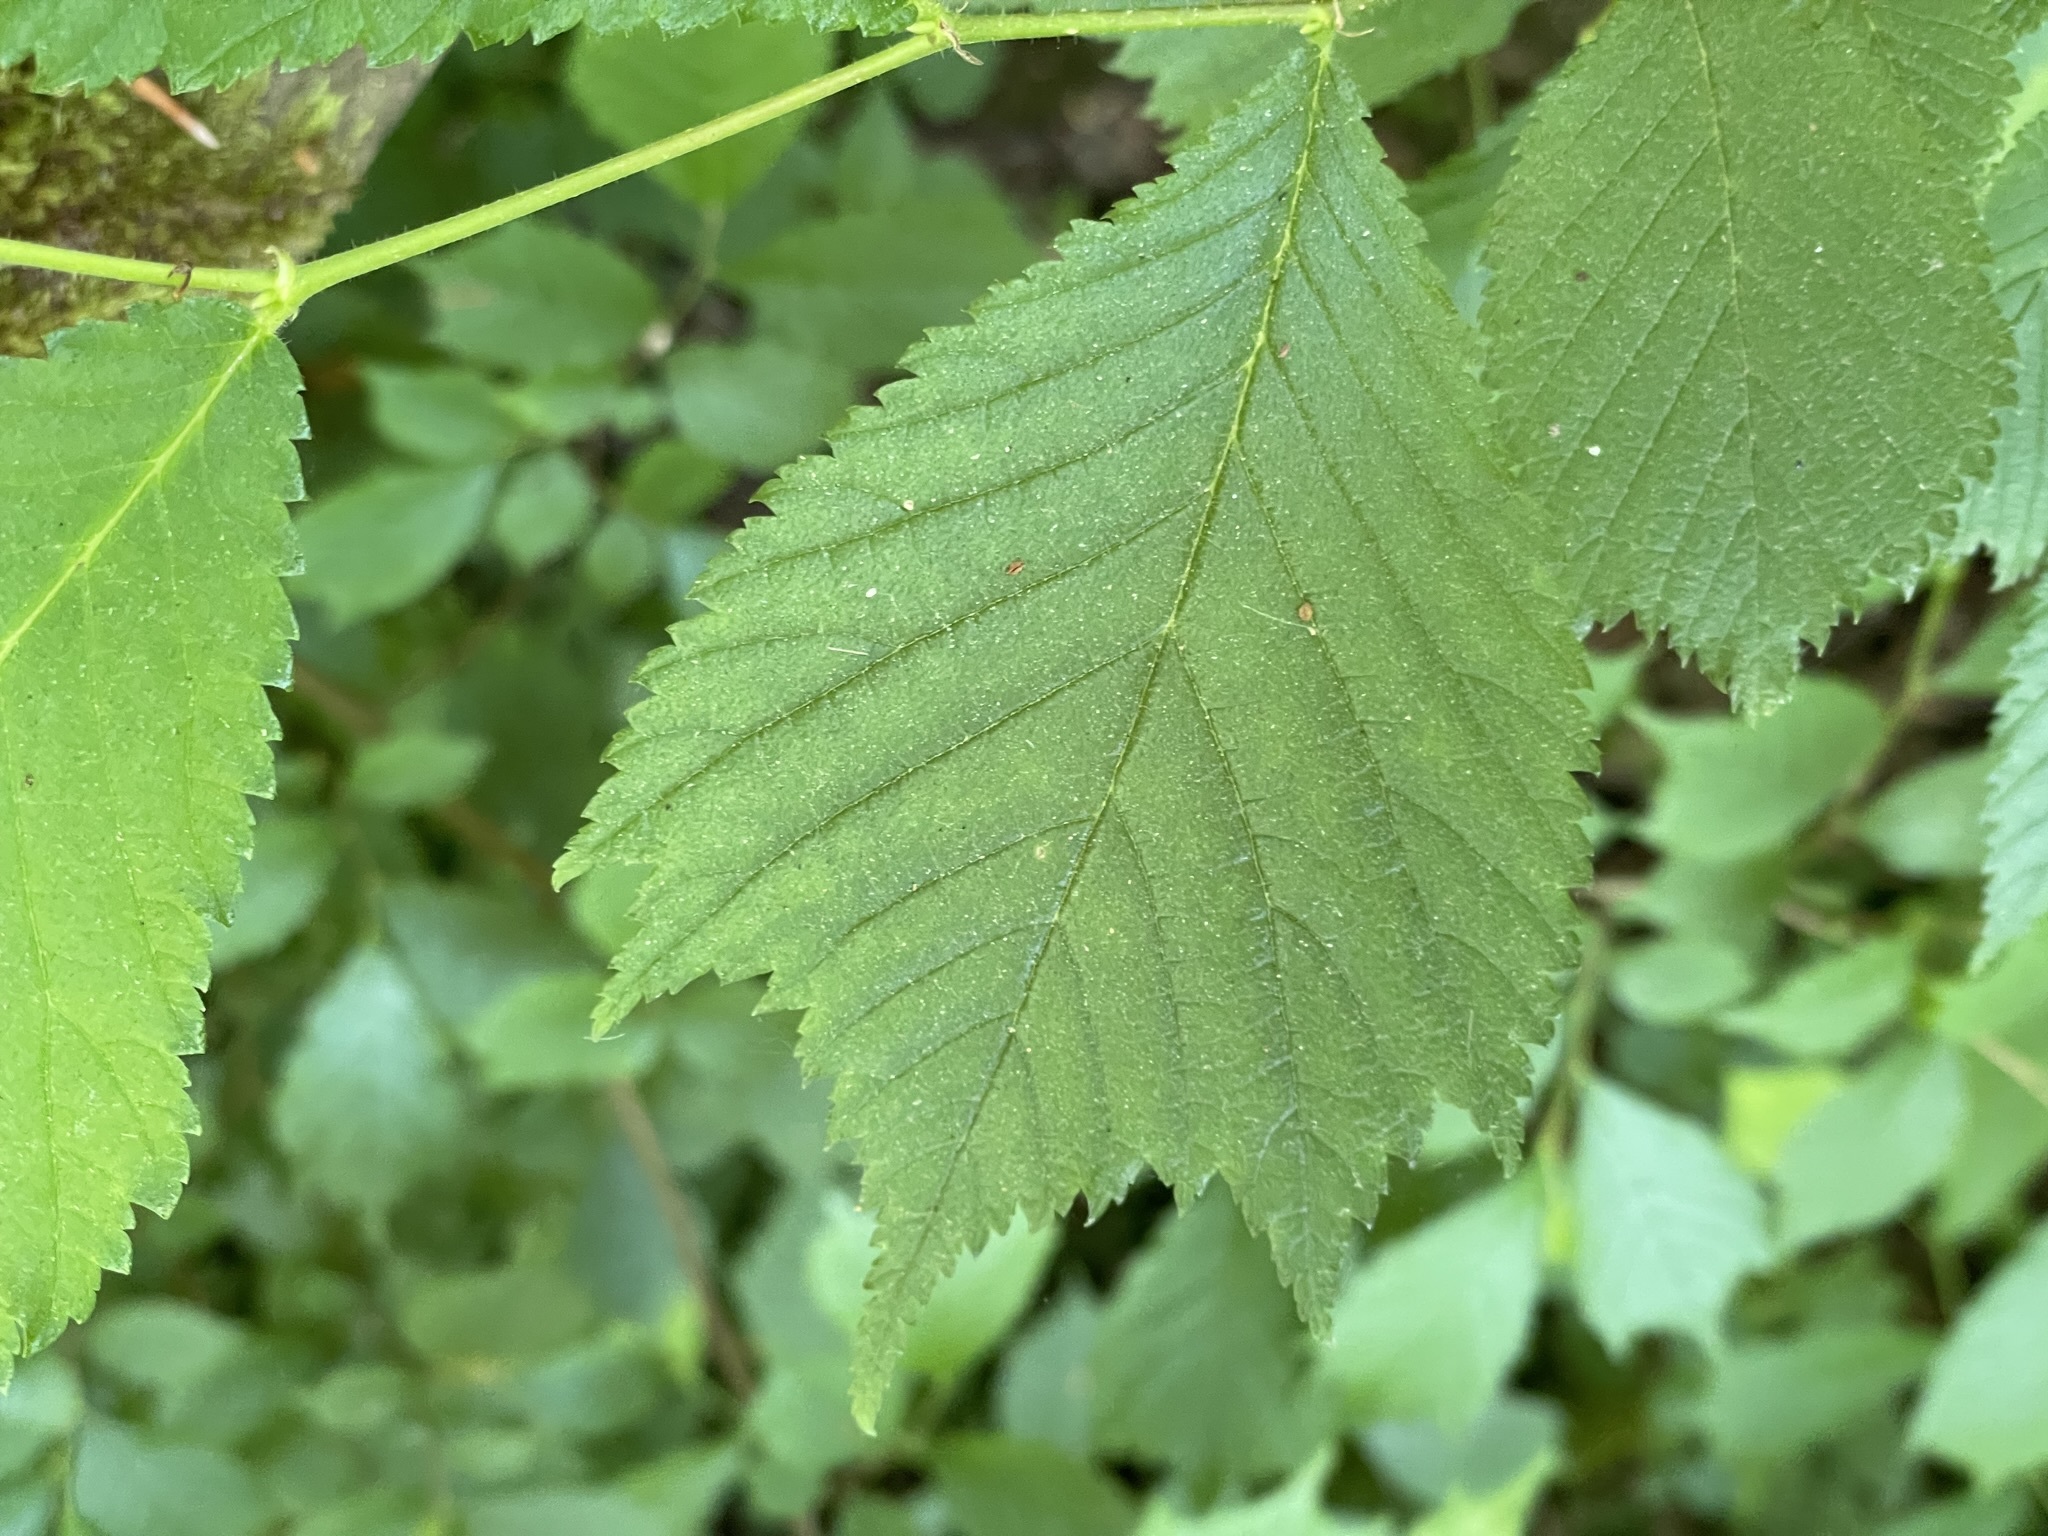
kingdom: Plantae
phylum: Tracheophyta
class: Magnoliopsida
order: Rosales
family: Ulmaceae
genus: Ulmus
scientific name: Ulmus glabra
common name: Wych elm
